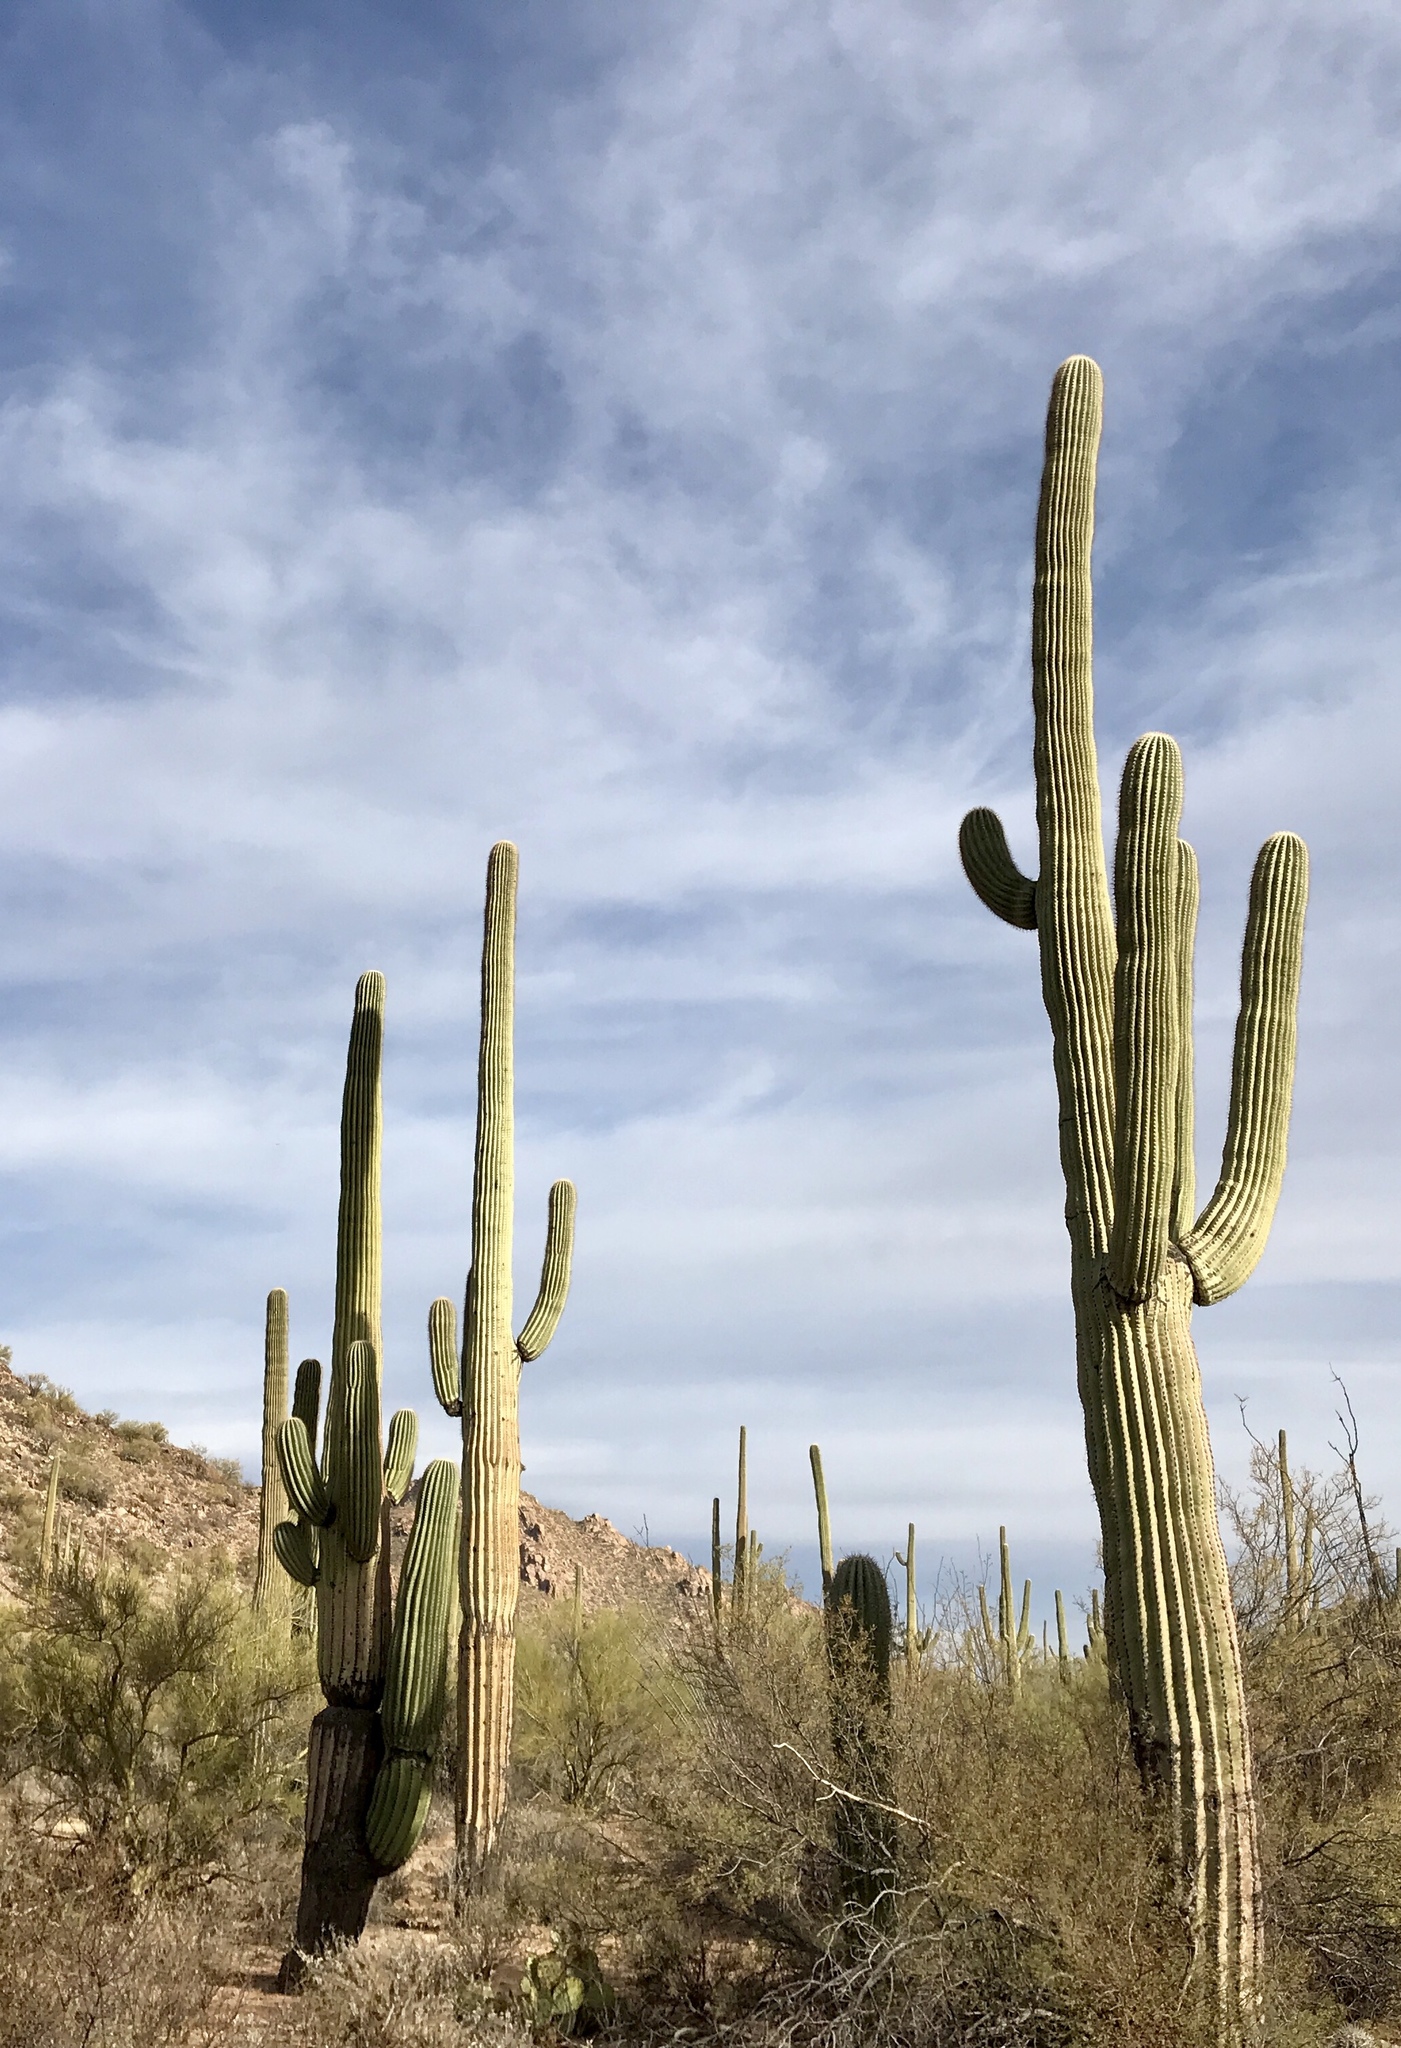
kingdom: Plantae
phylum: Tracheophyta
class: Magnoliopsida
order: Caryophyllales
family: Cactaceae
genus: Carnegiea
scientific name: Carnegiea gigantea
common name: Saguaro
